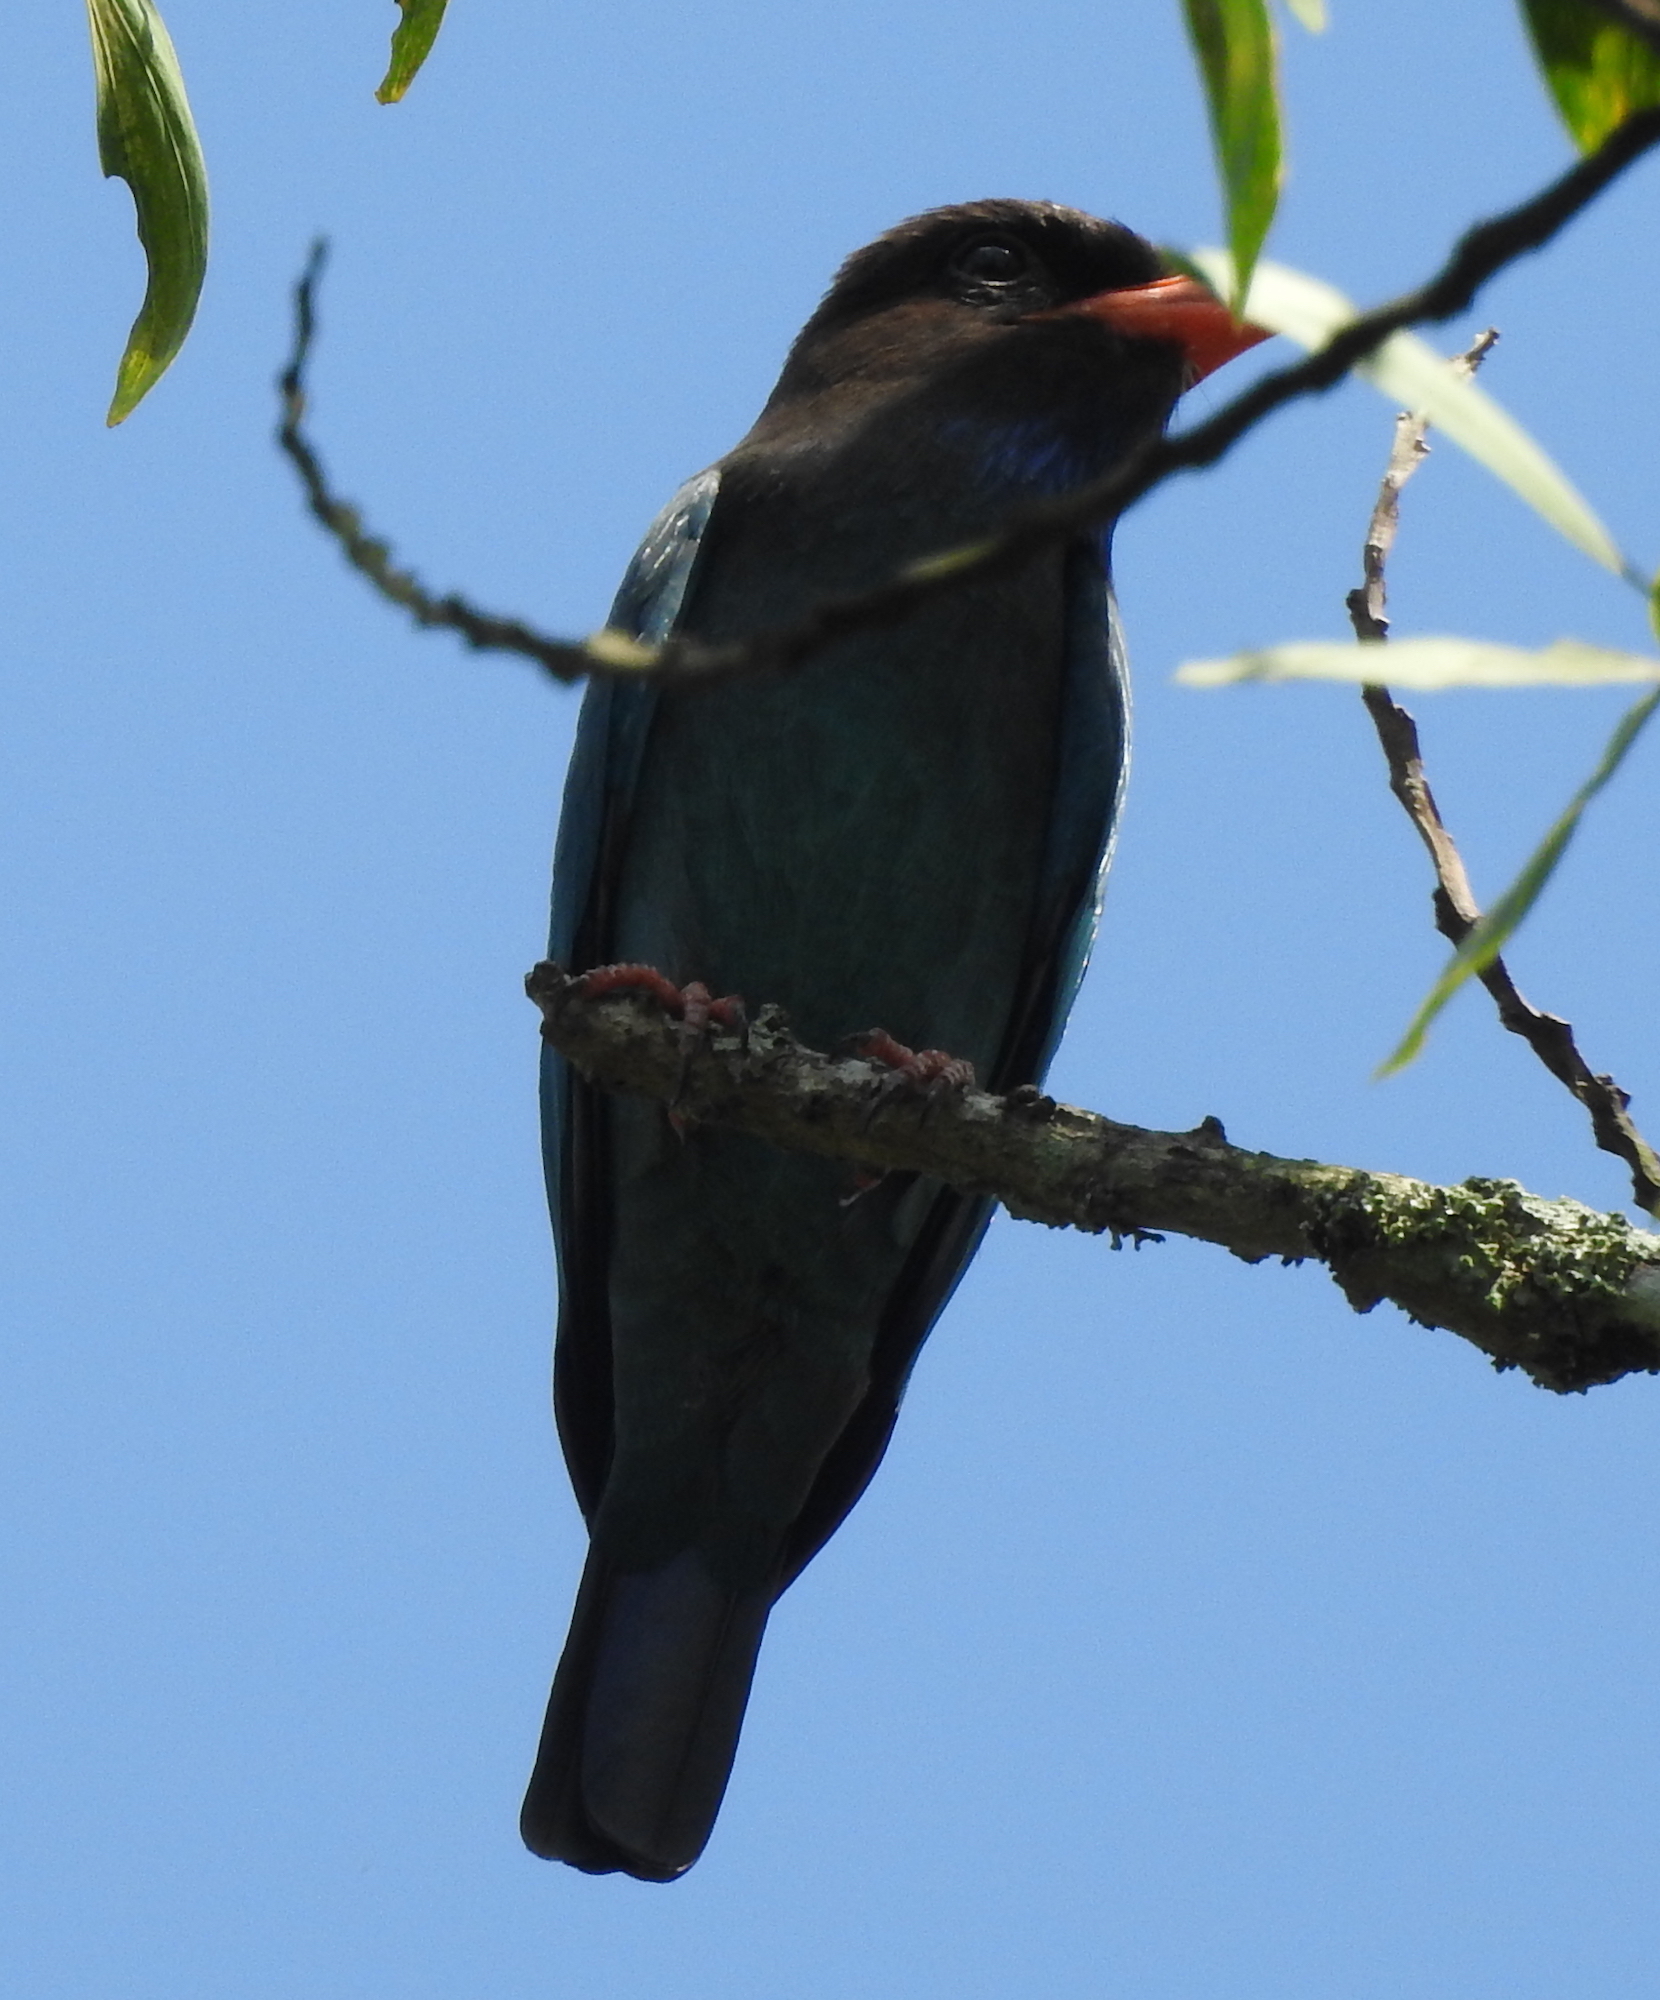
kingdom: Animalia
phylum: Chordata
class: Aves
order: Coraciiformes
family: Coraciidae
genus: Eurystomus
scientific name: Eurystomus orientalis
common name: Oriental dollarbird
